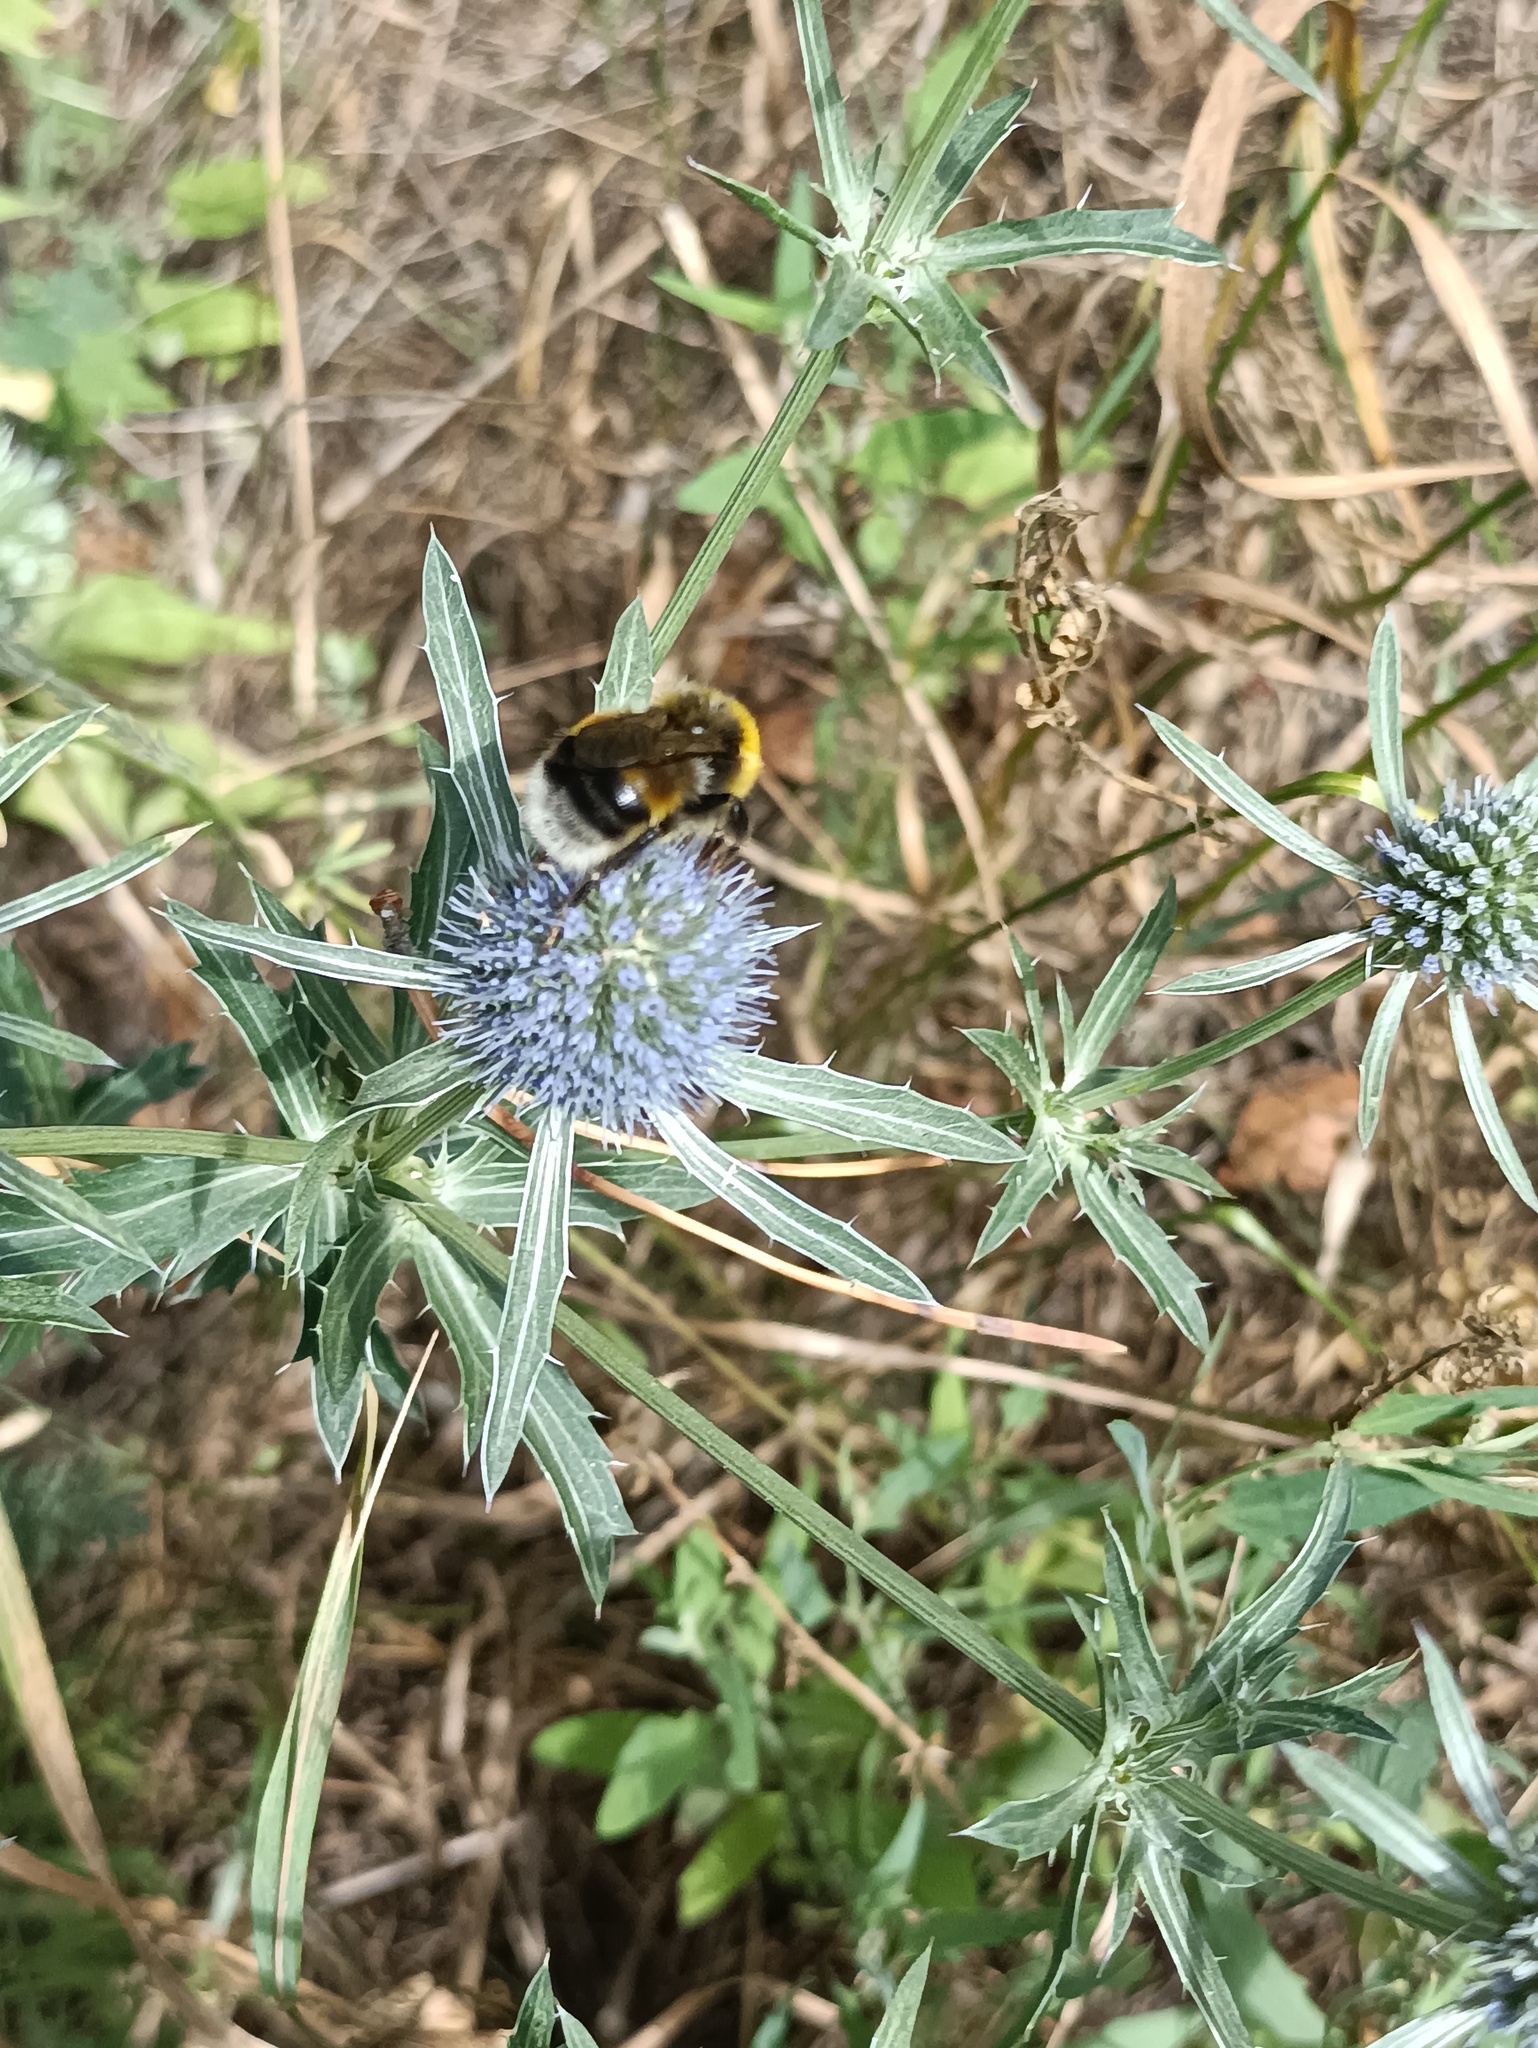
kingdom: Animalia
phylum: Arthropoda
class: Insecta
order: Hymenoptera
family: Apidae
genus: Bombus
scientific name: Bombus lucorum
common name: White-tailed bumblebee
